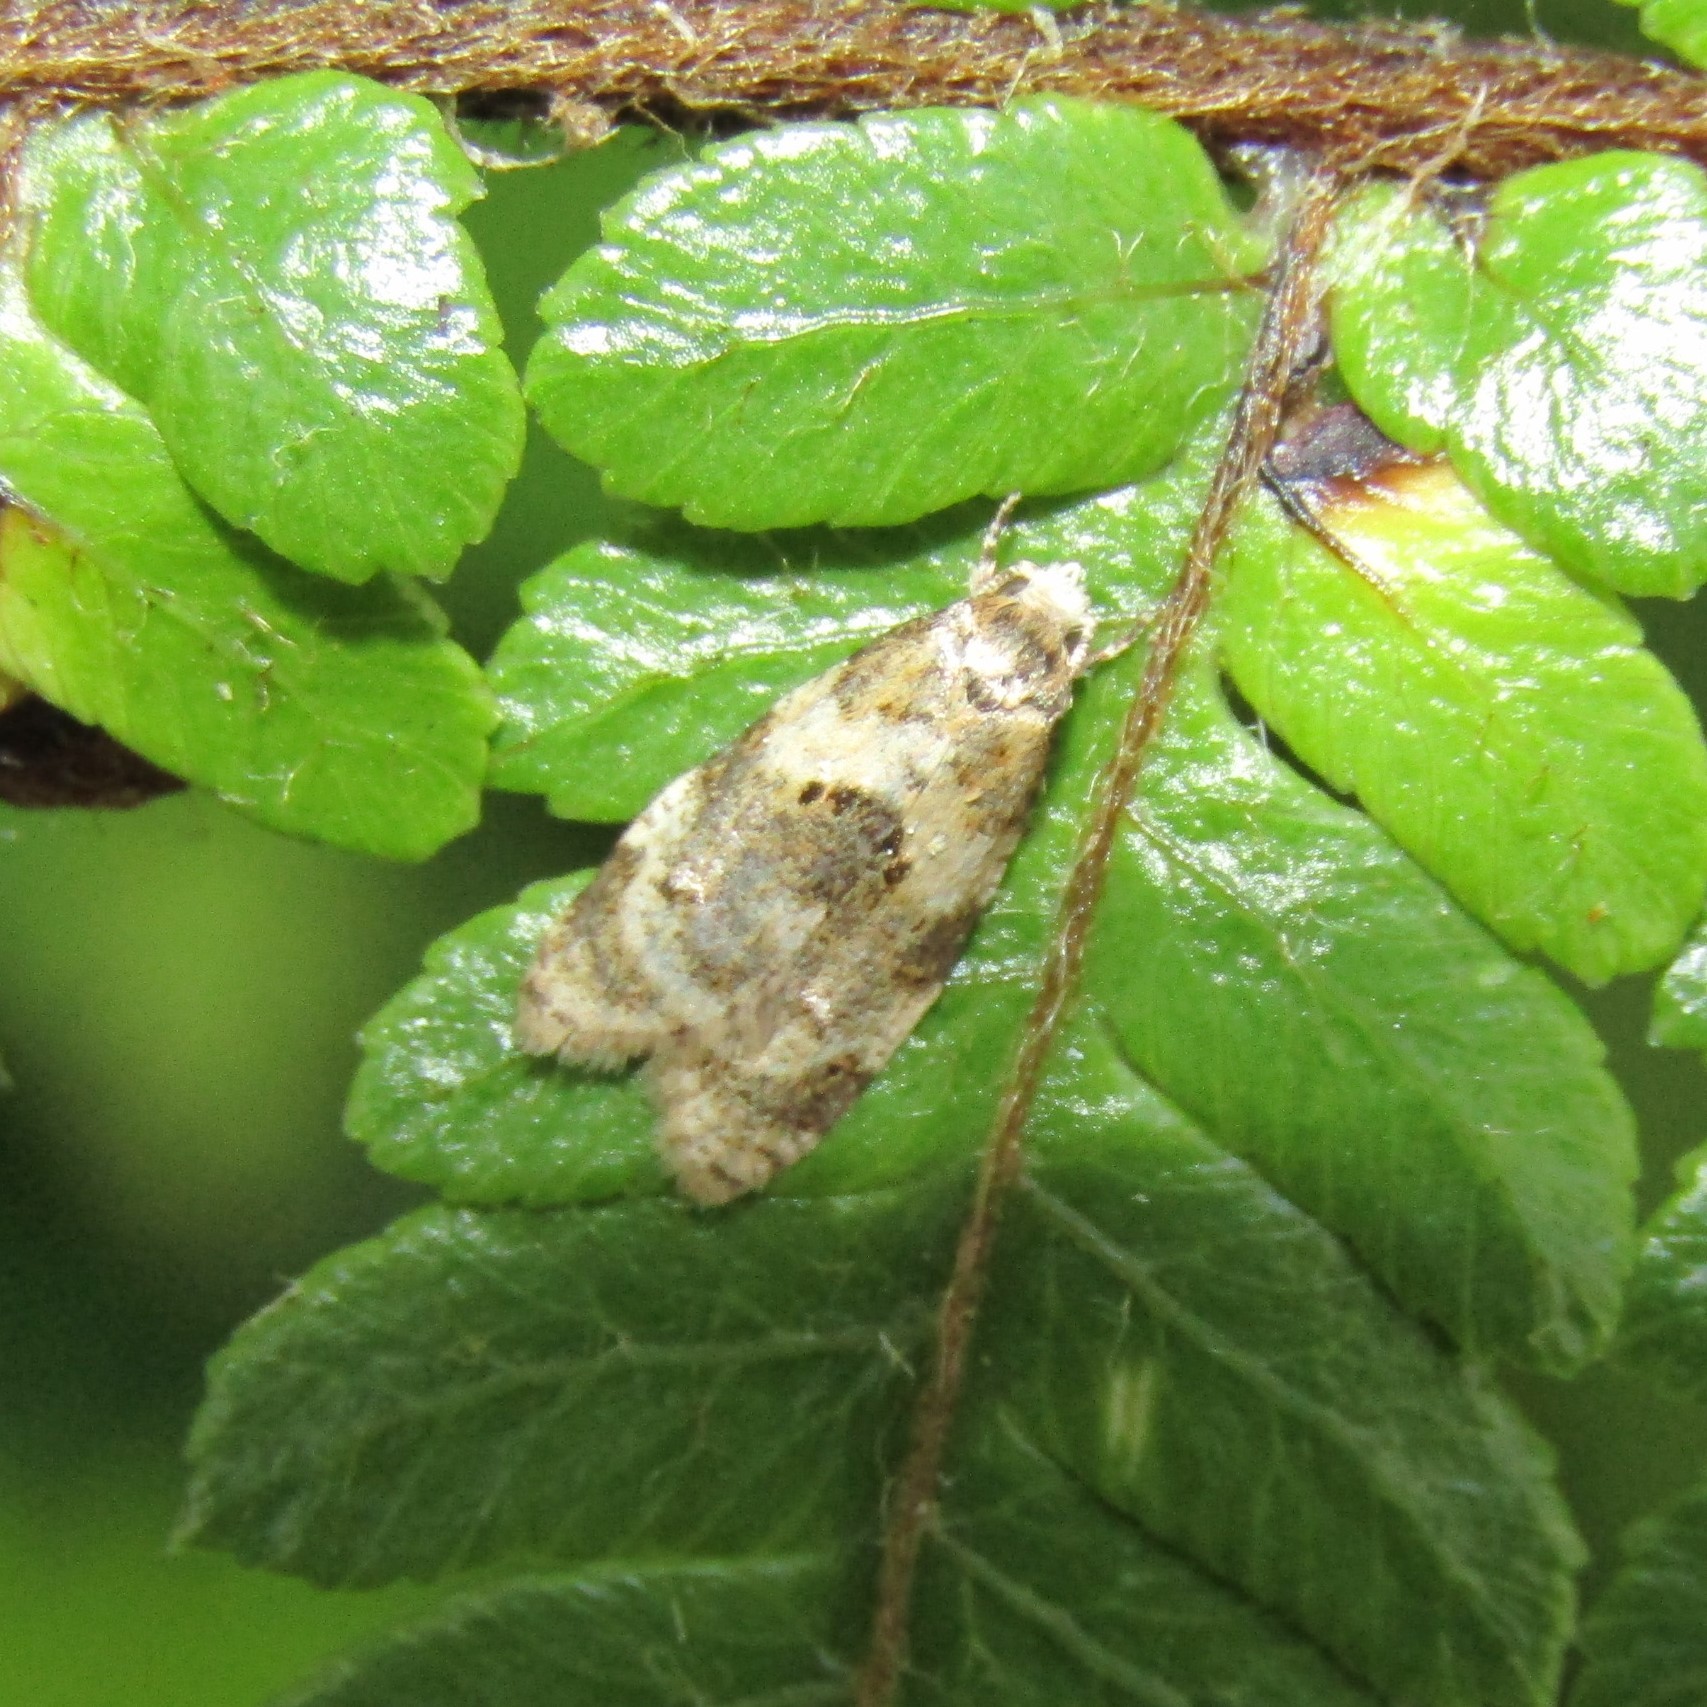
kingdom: Animalia
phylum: Arthropoda
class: Insecta
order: Lepidoptera
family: Tortricidae
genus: Dipterina
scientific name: Dipterina imbriferana
